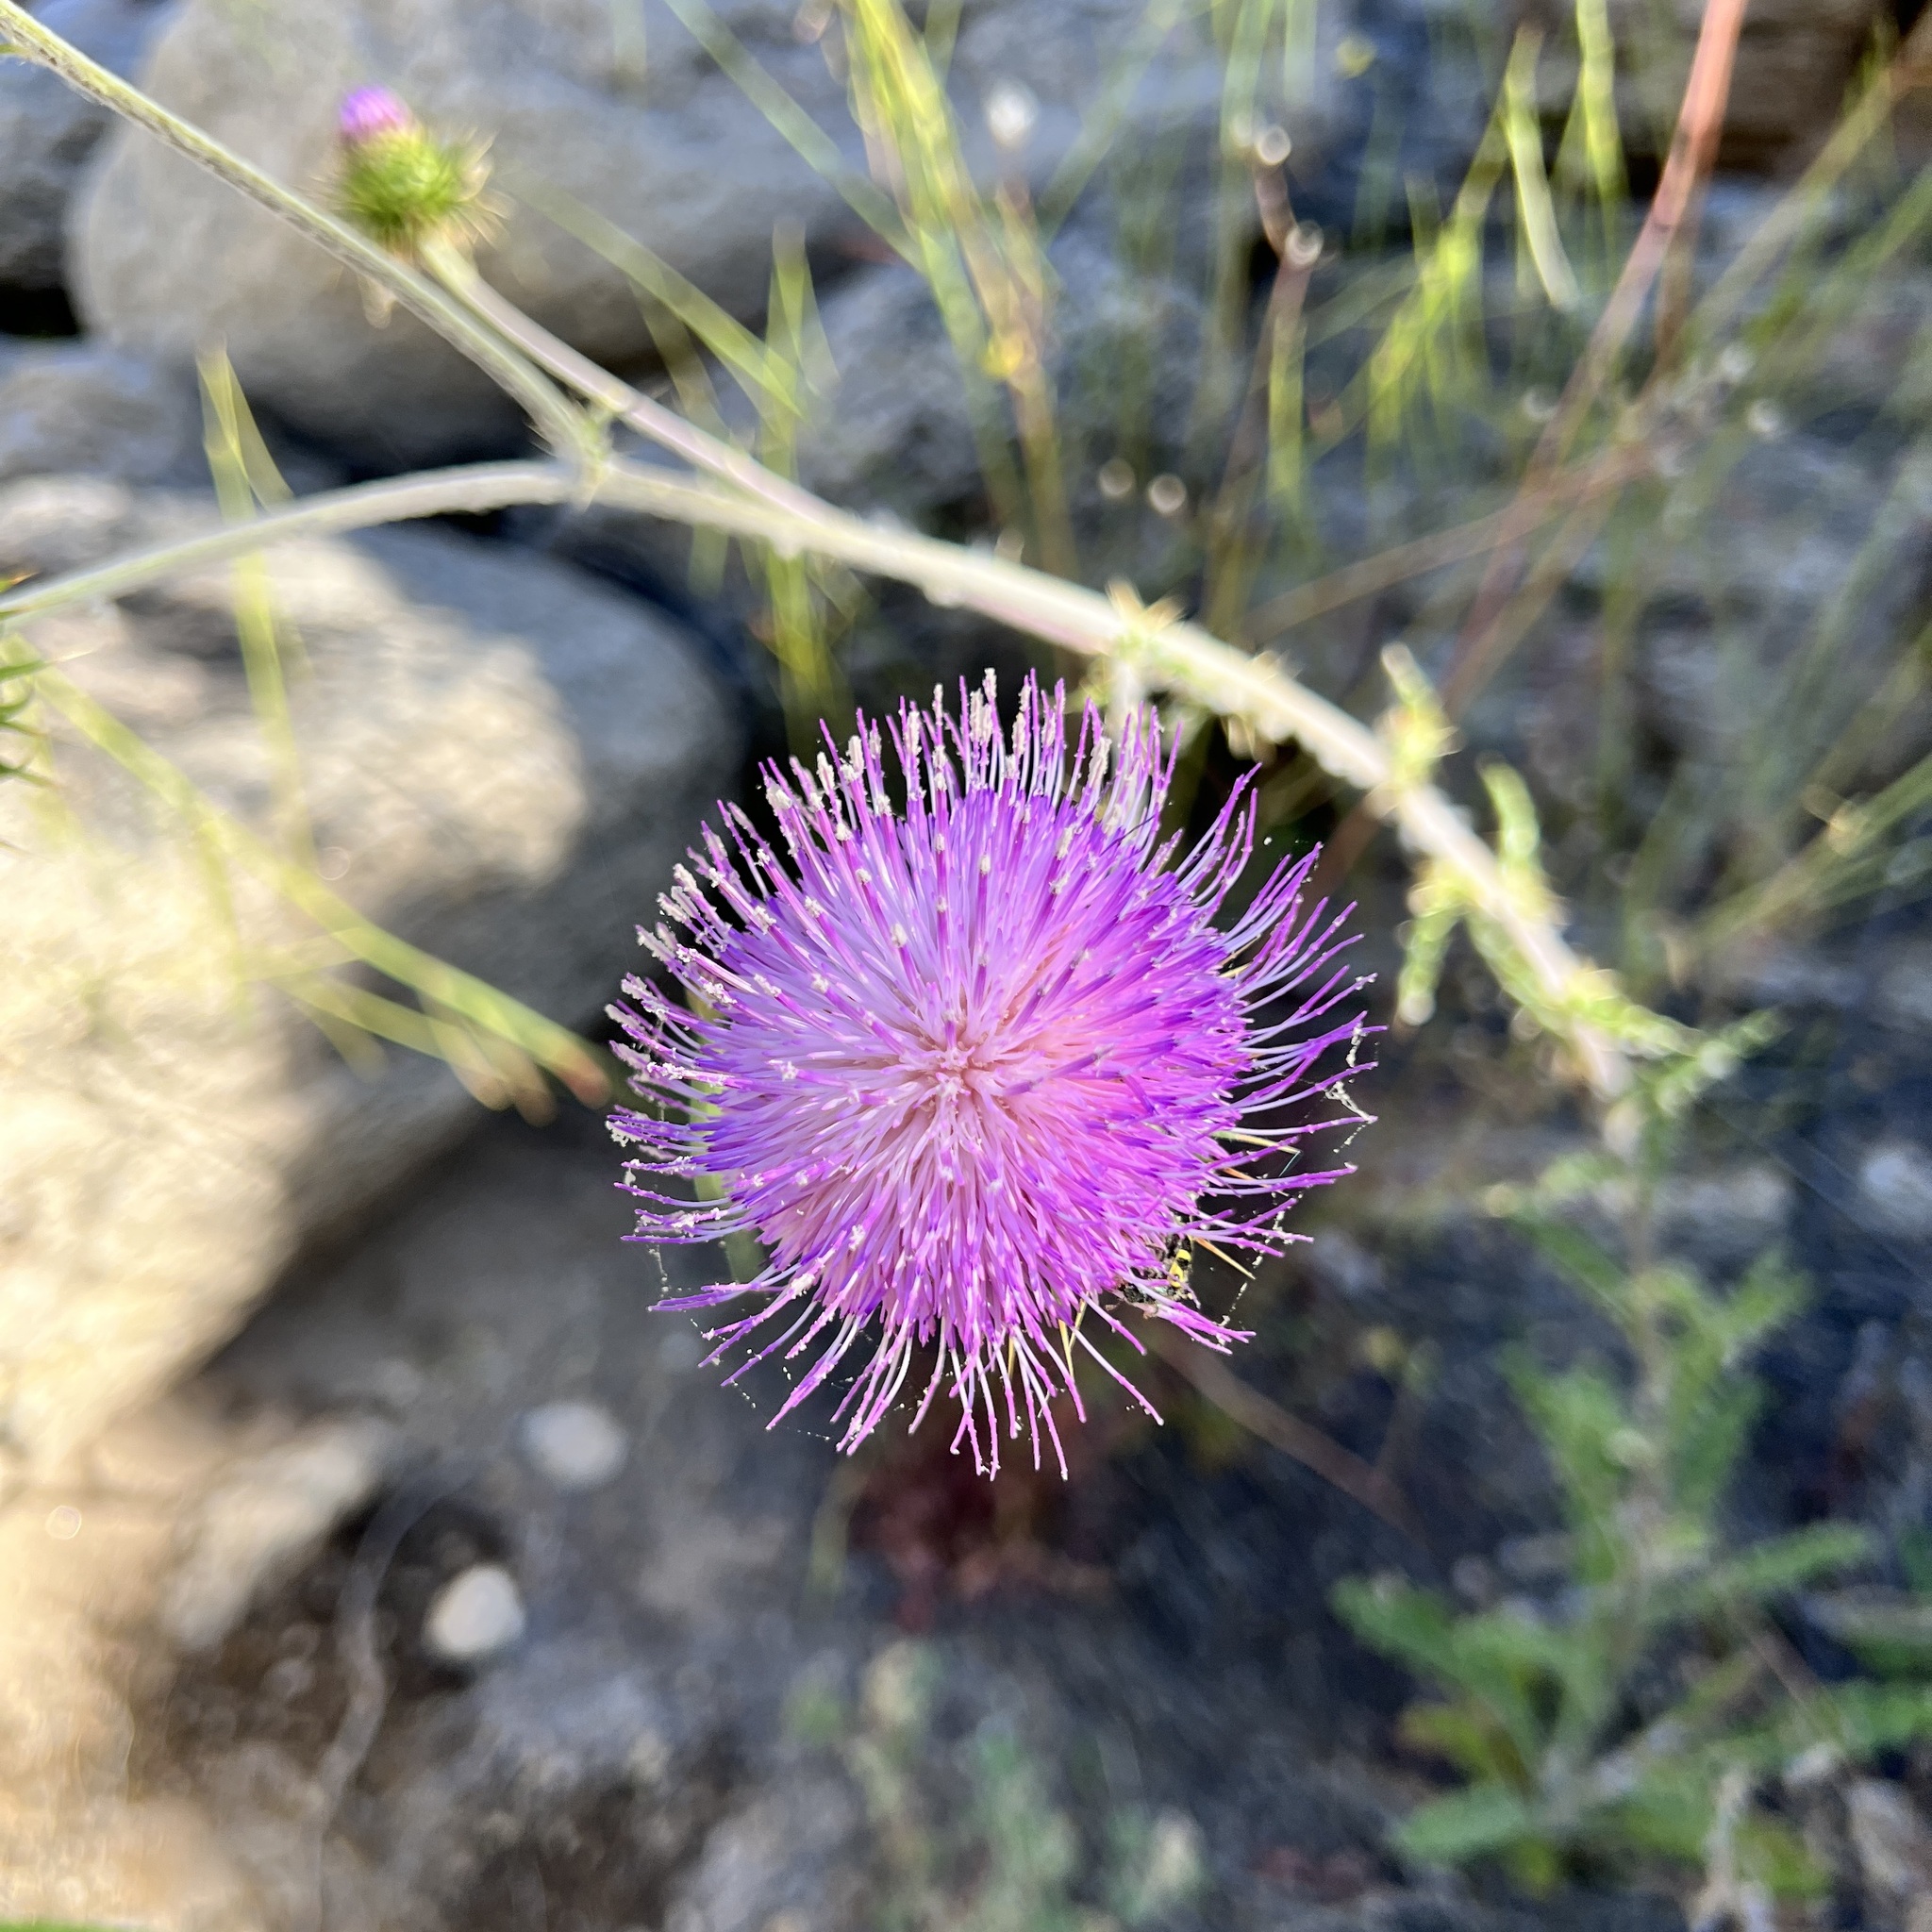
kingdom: Plantae
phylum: Tracheophyta
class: Magnoliopsida
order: Asterales
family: Asteraceae
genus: Cirsium
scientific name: Cirsium neomexicanum
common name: New mexico thistle
